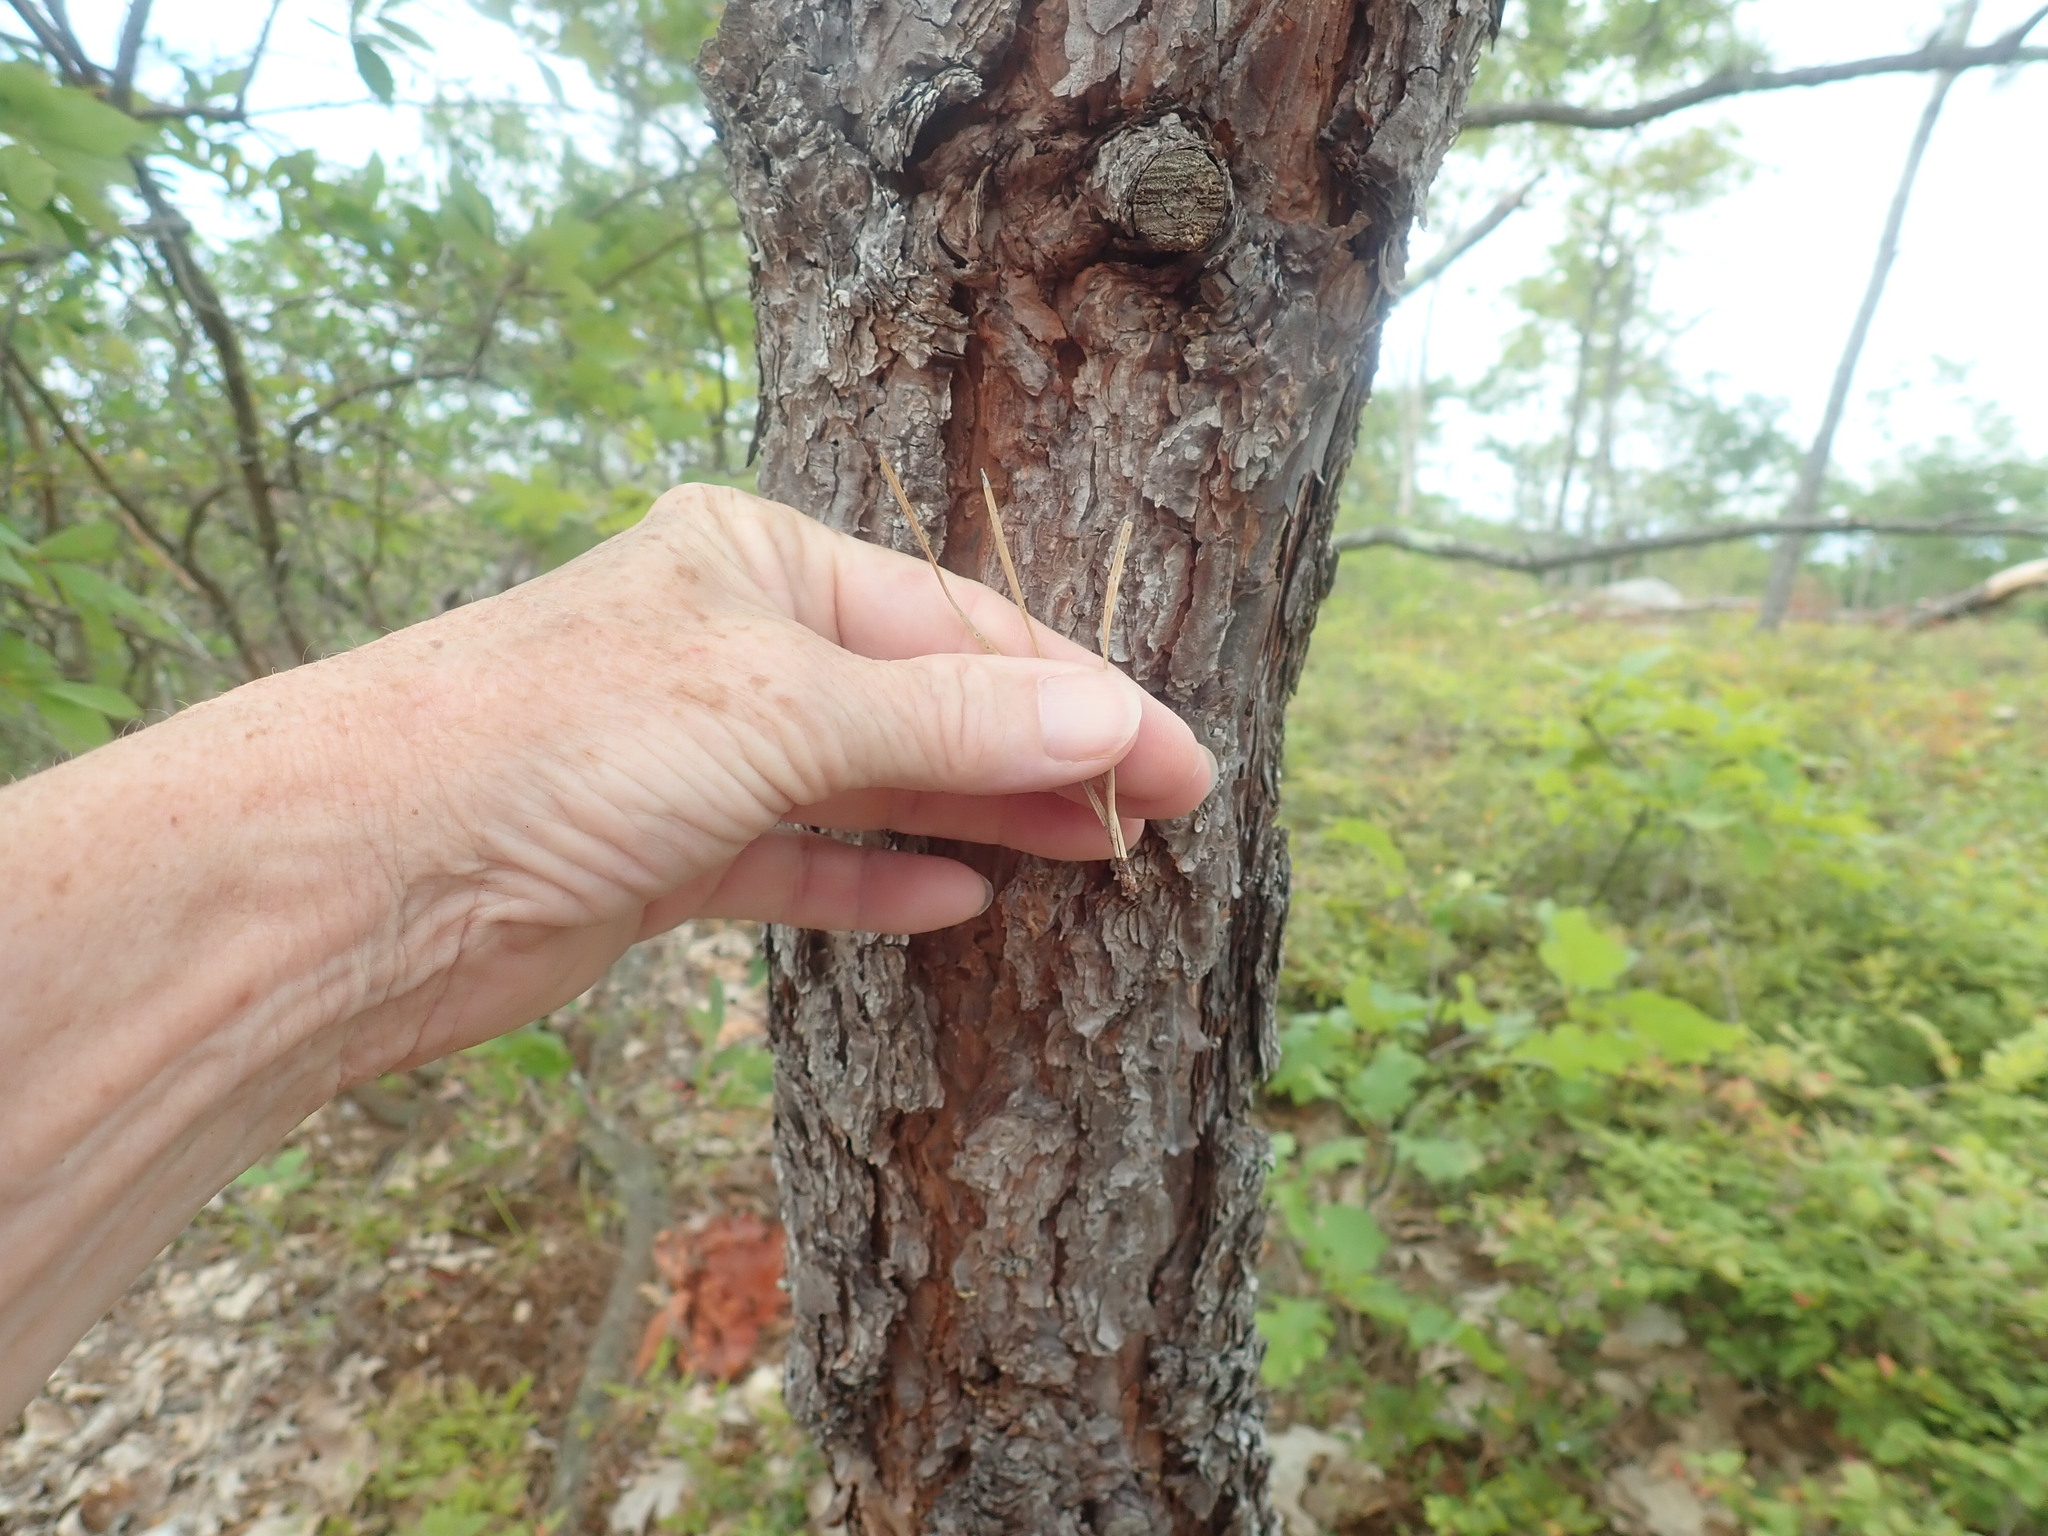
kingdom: Plantae
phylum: Tracheophyta
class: Pinopsida
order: Pinales
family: Pinaceae
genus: Pinus
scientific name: Pinus rigida
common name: Pitch pine
